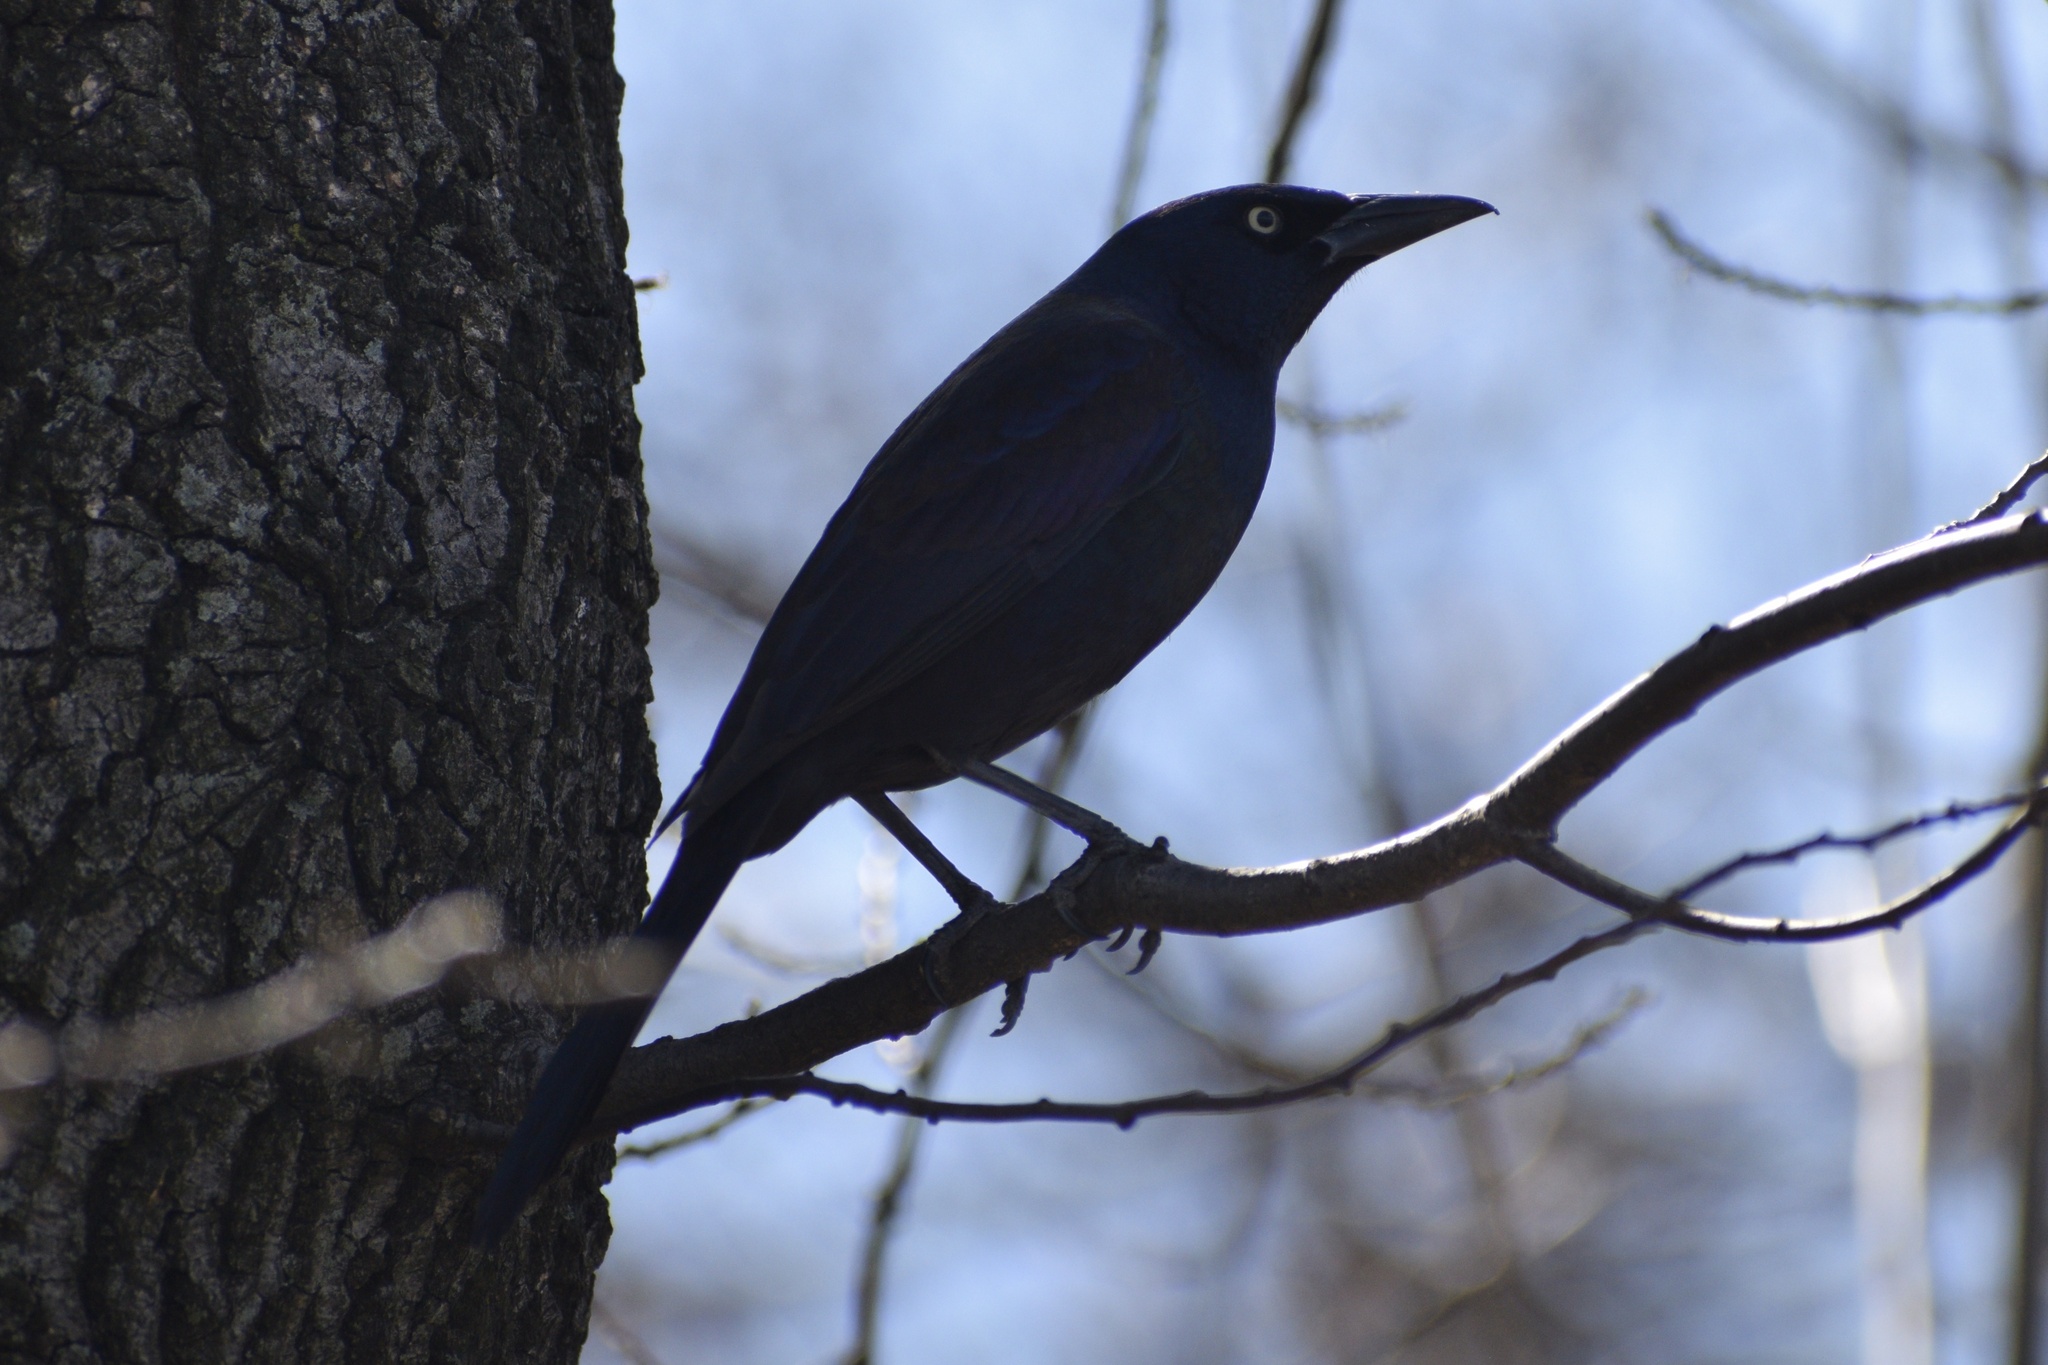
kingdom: Animalia
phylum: Chordata
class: Aves
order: Passeriformes
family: Icteridae
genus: Quiscalus
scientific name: Quiscalus quiscula
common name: Common grackle
